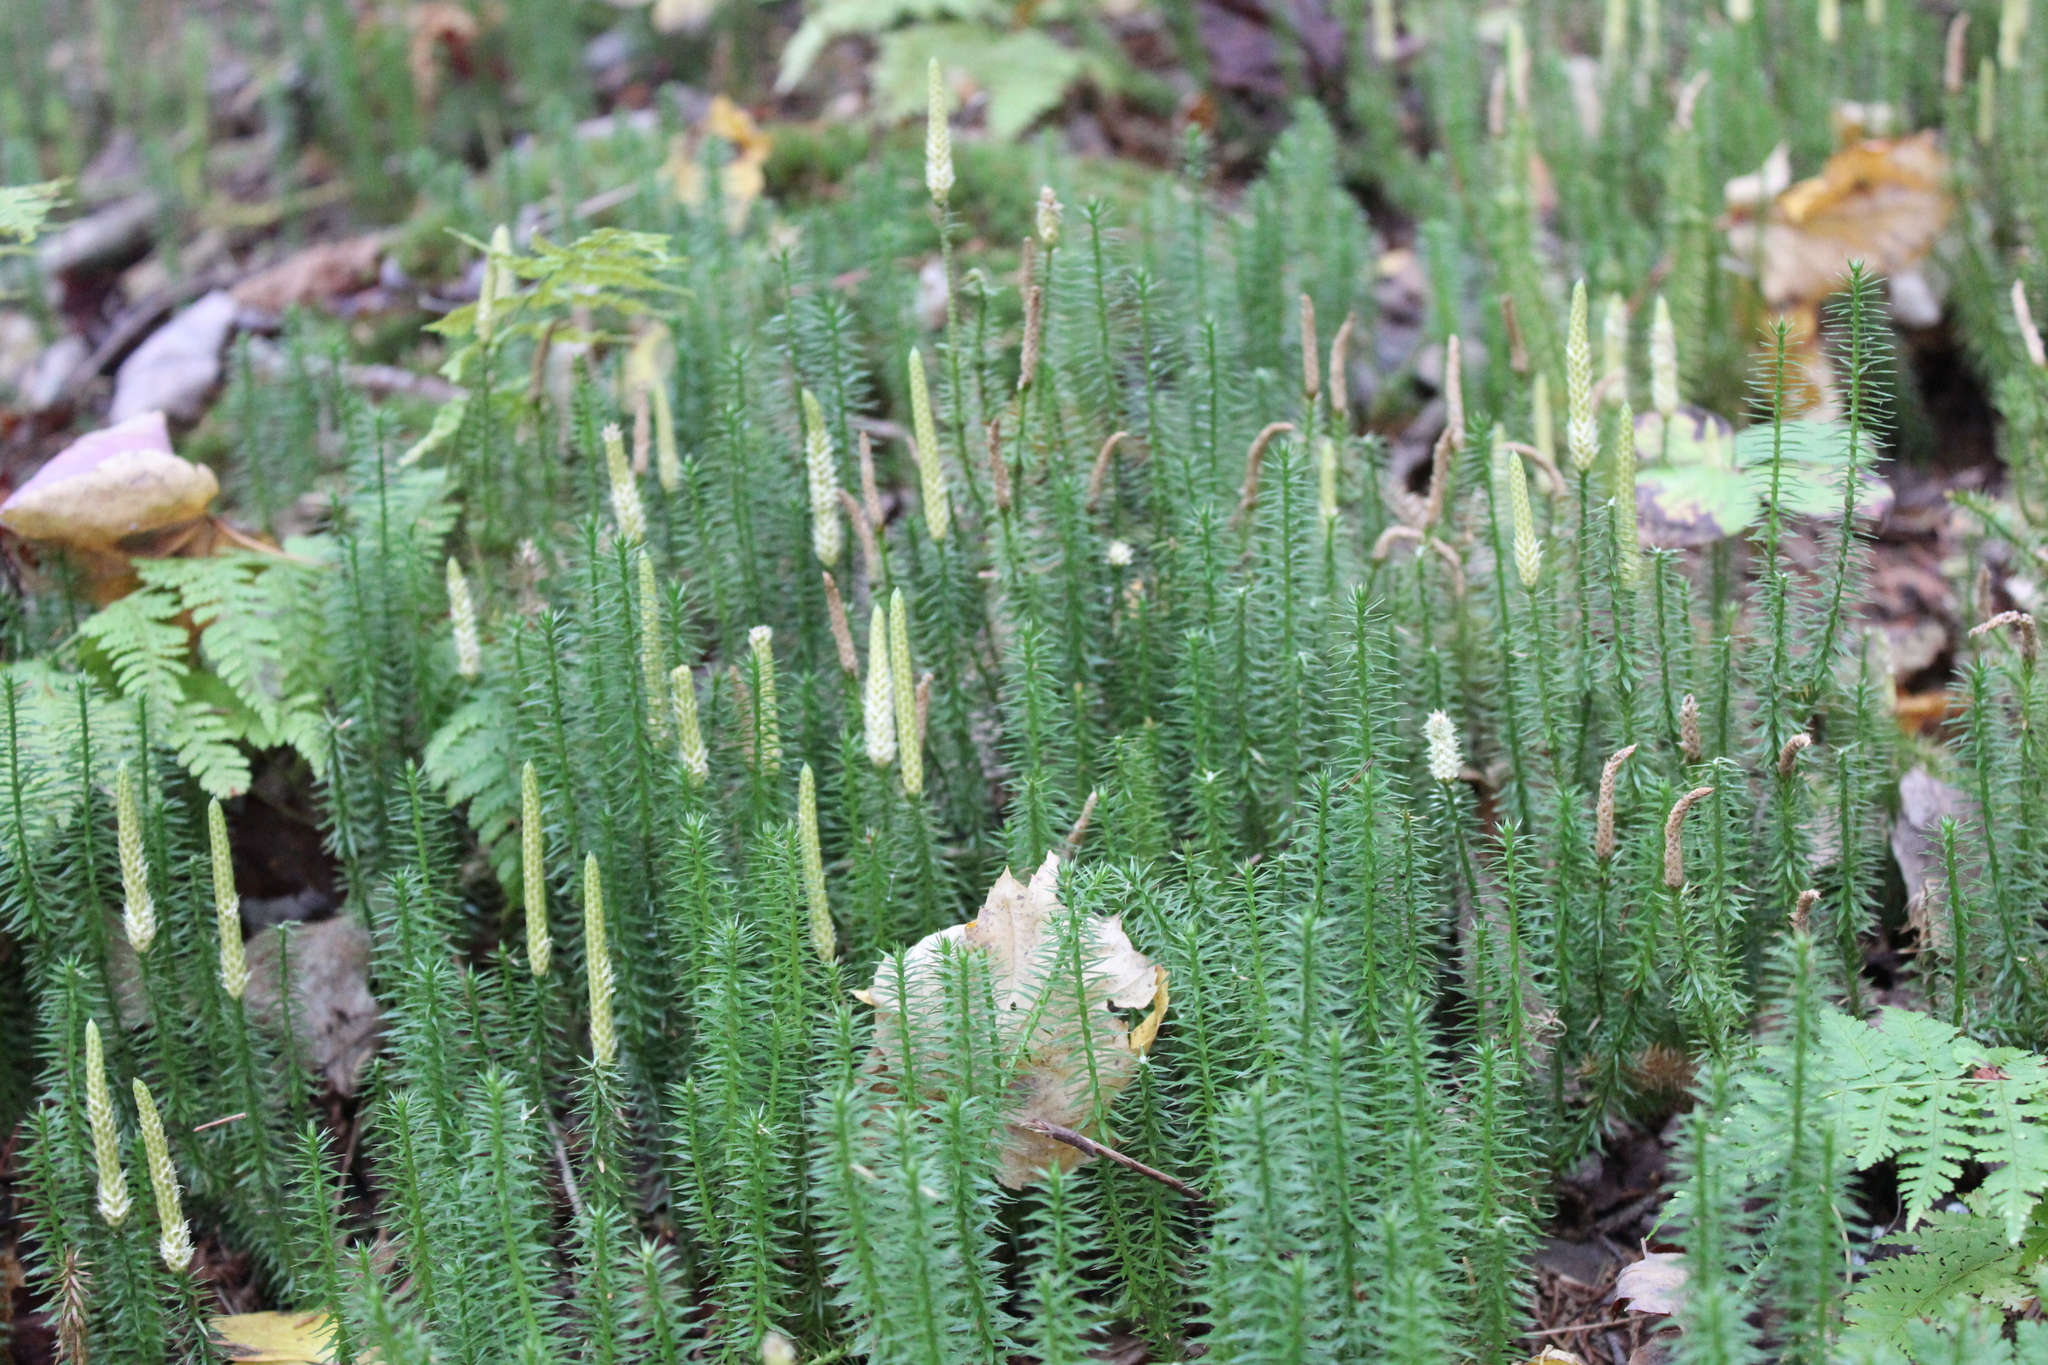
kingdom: Plantae
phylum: Tracheophyta
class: Lycopodiopsida
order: Lycopodiales
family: Lycopodiaceae
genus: Spinulum
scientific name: Spinulum annotinum
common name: Interrupted club-moss
